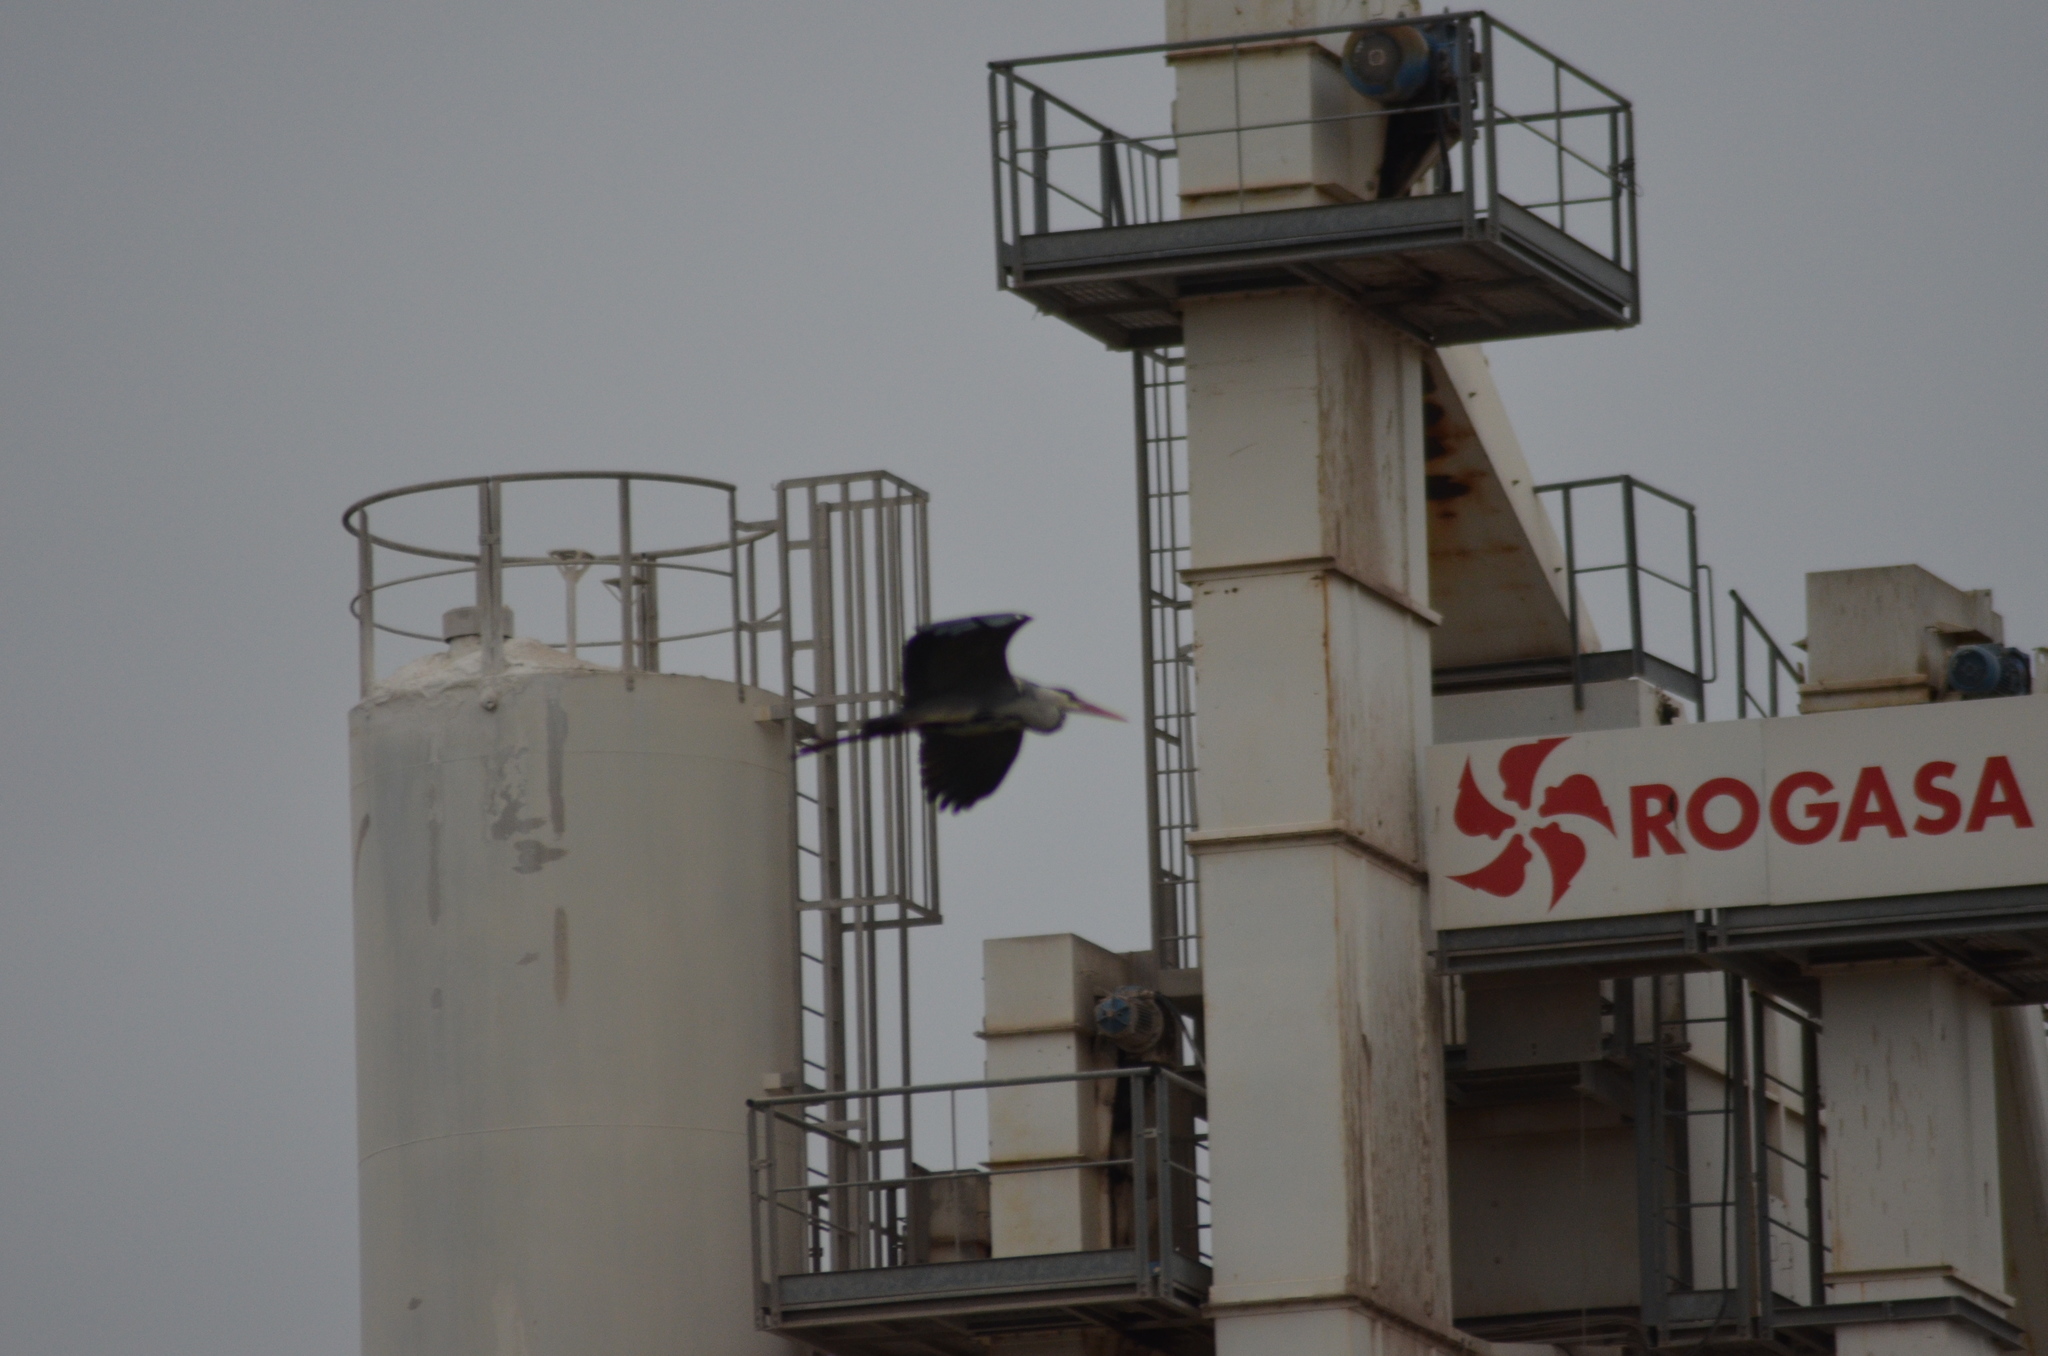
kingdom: Animalia
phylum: Chordata
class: Aves
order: Pelecaniformes
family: Ardeidae
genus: Ardea
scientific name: Ardea cinerea
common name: Grey heron
